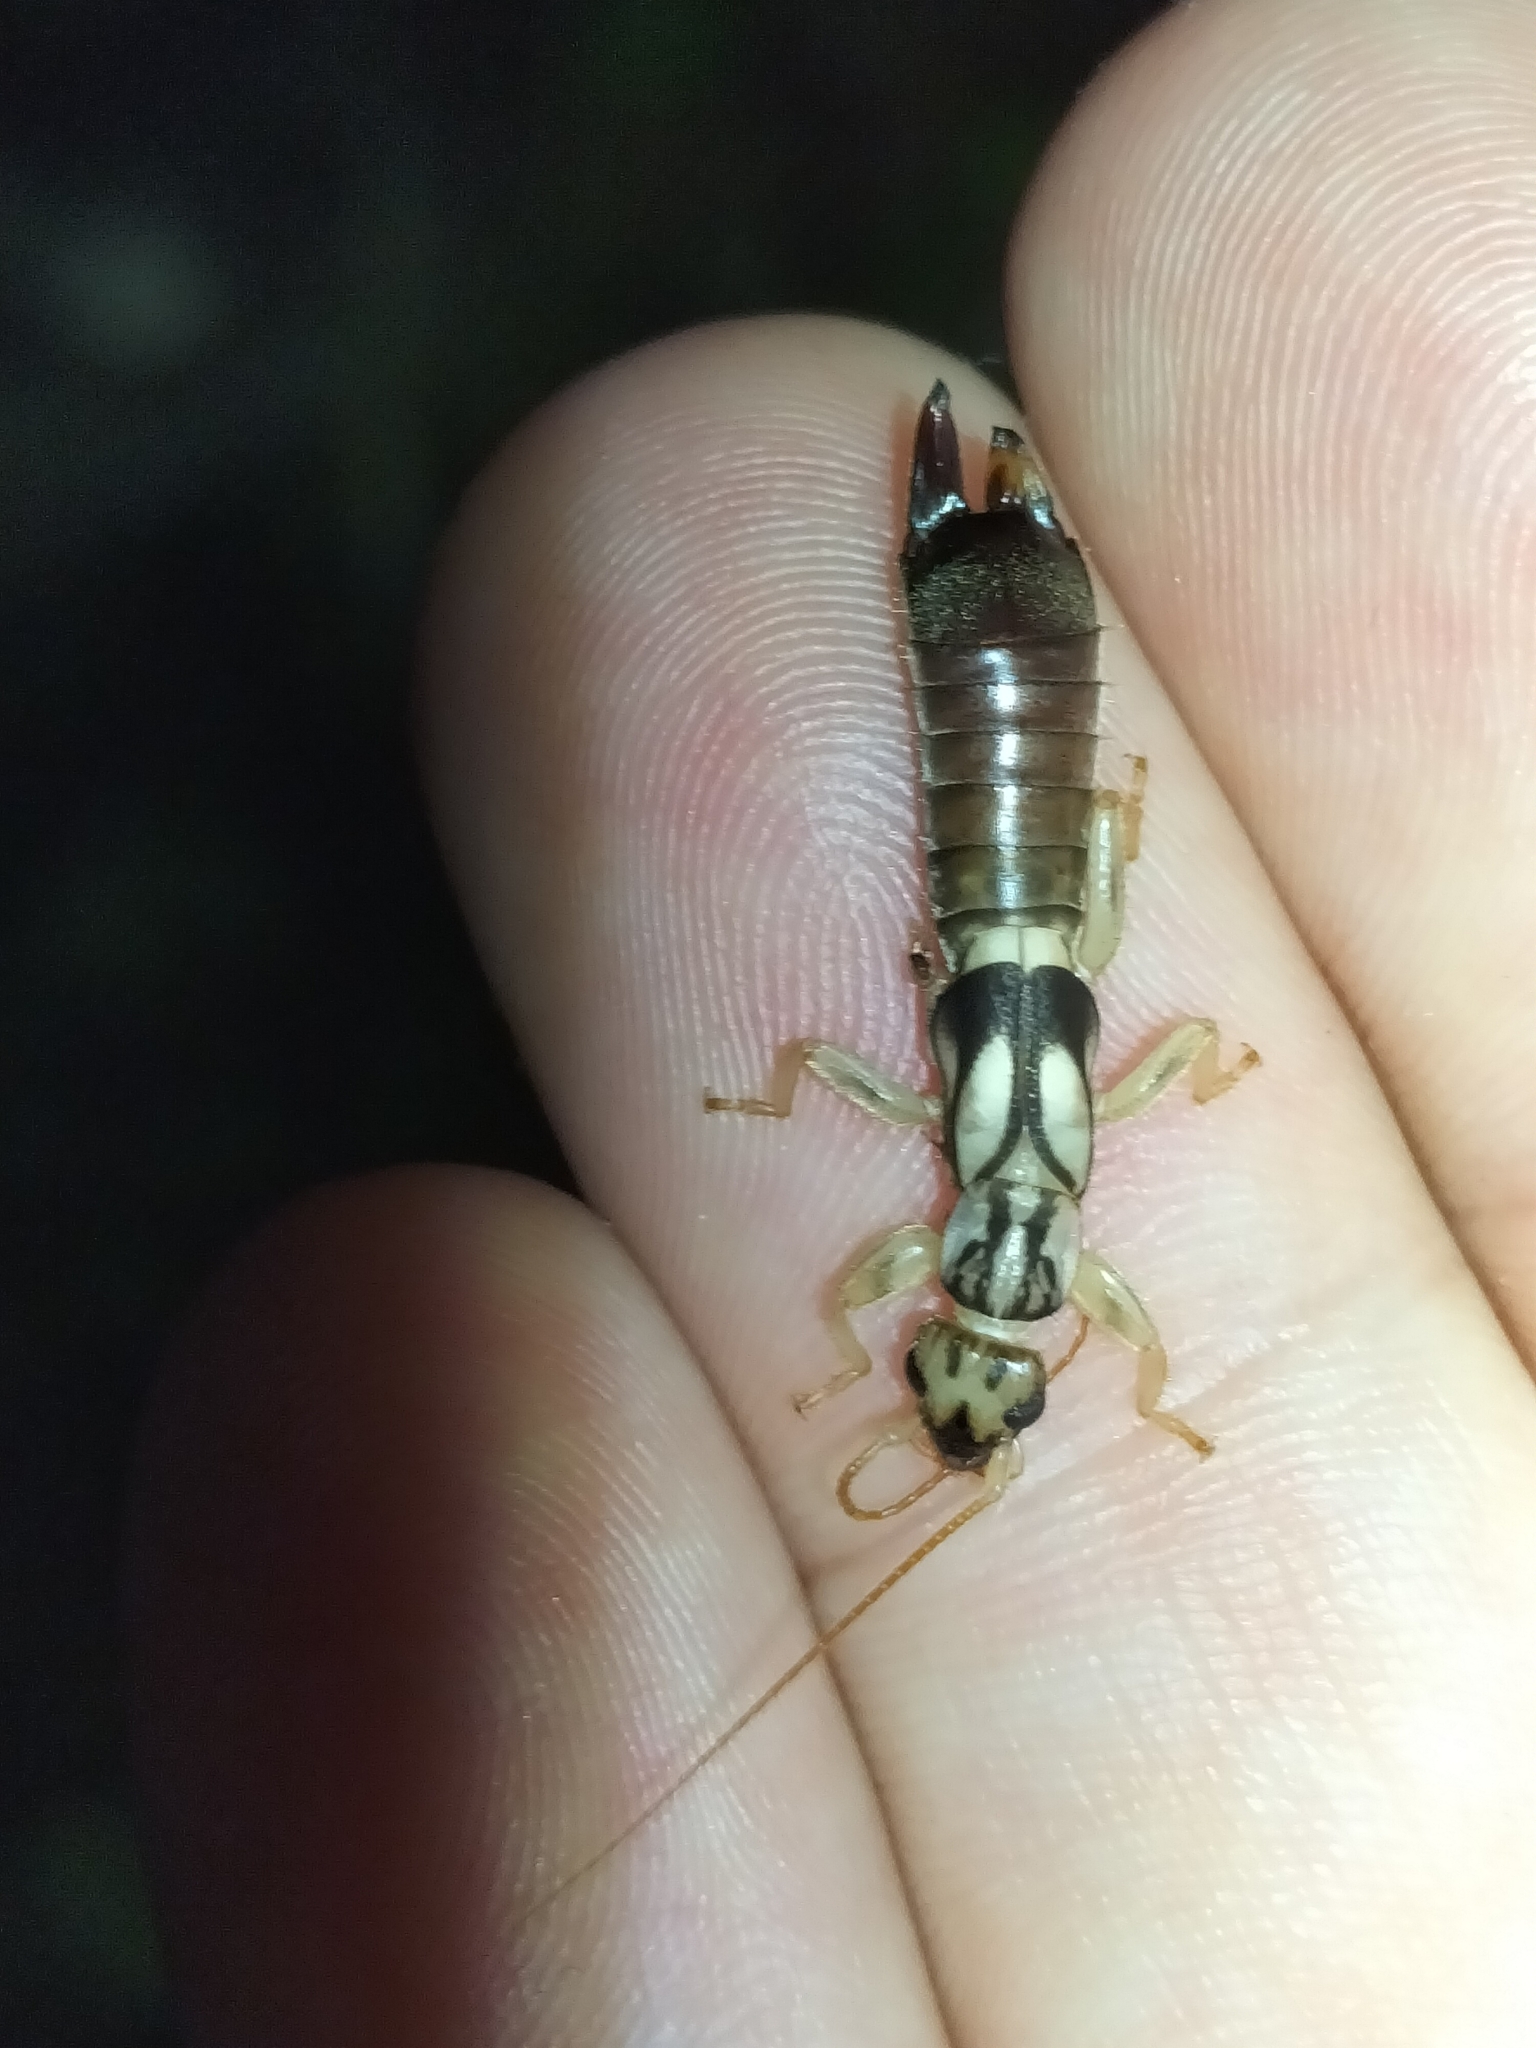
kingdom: Animalia
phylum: Arthropoda
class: Insecta
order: Dermaptera
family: Pygidicranidae
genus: Cranopygia
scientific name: Cranopygia daemeli
